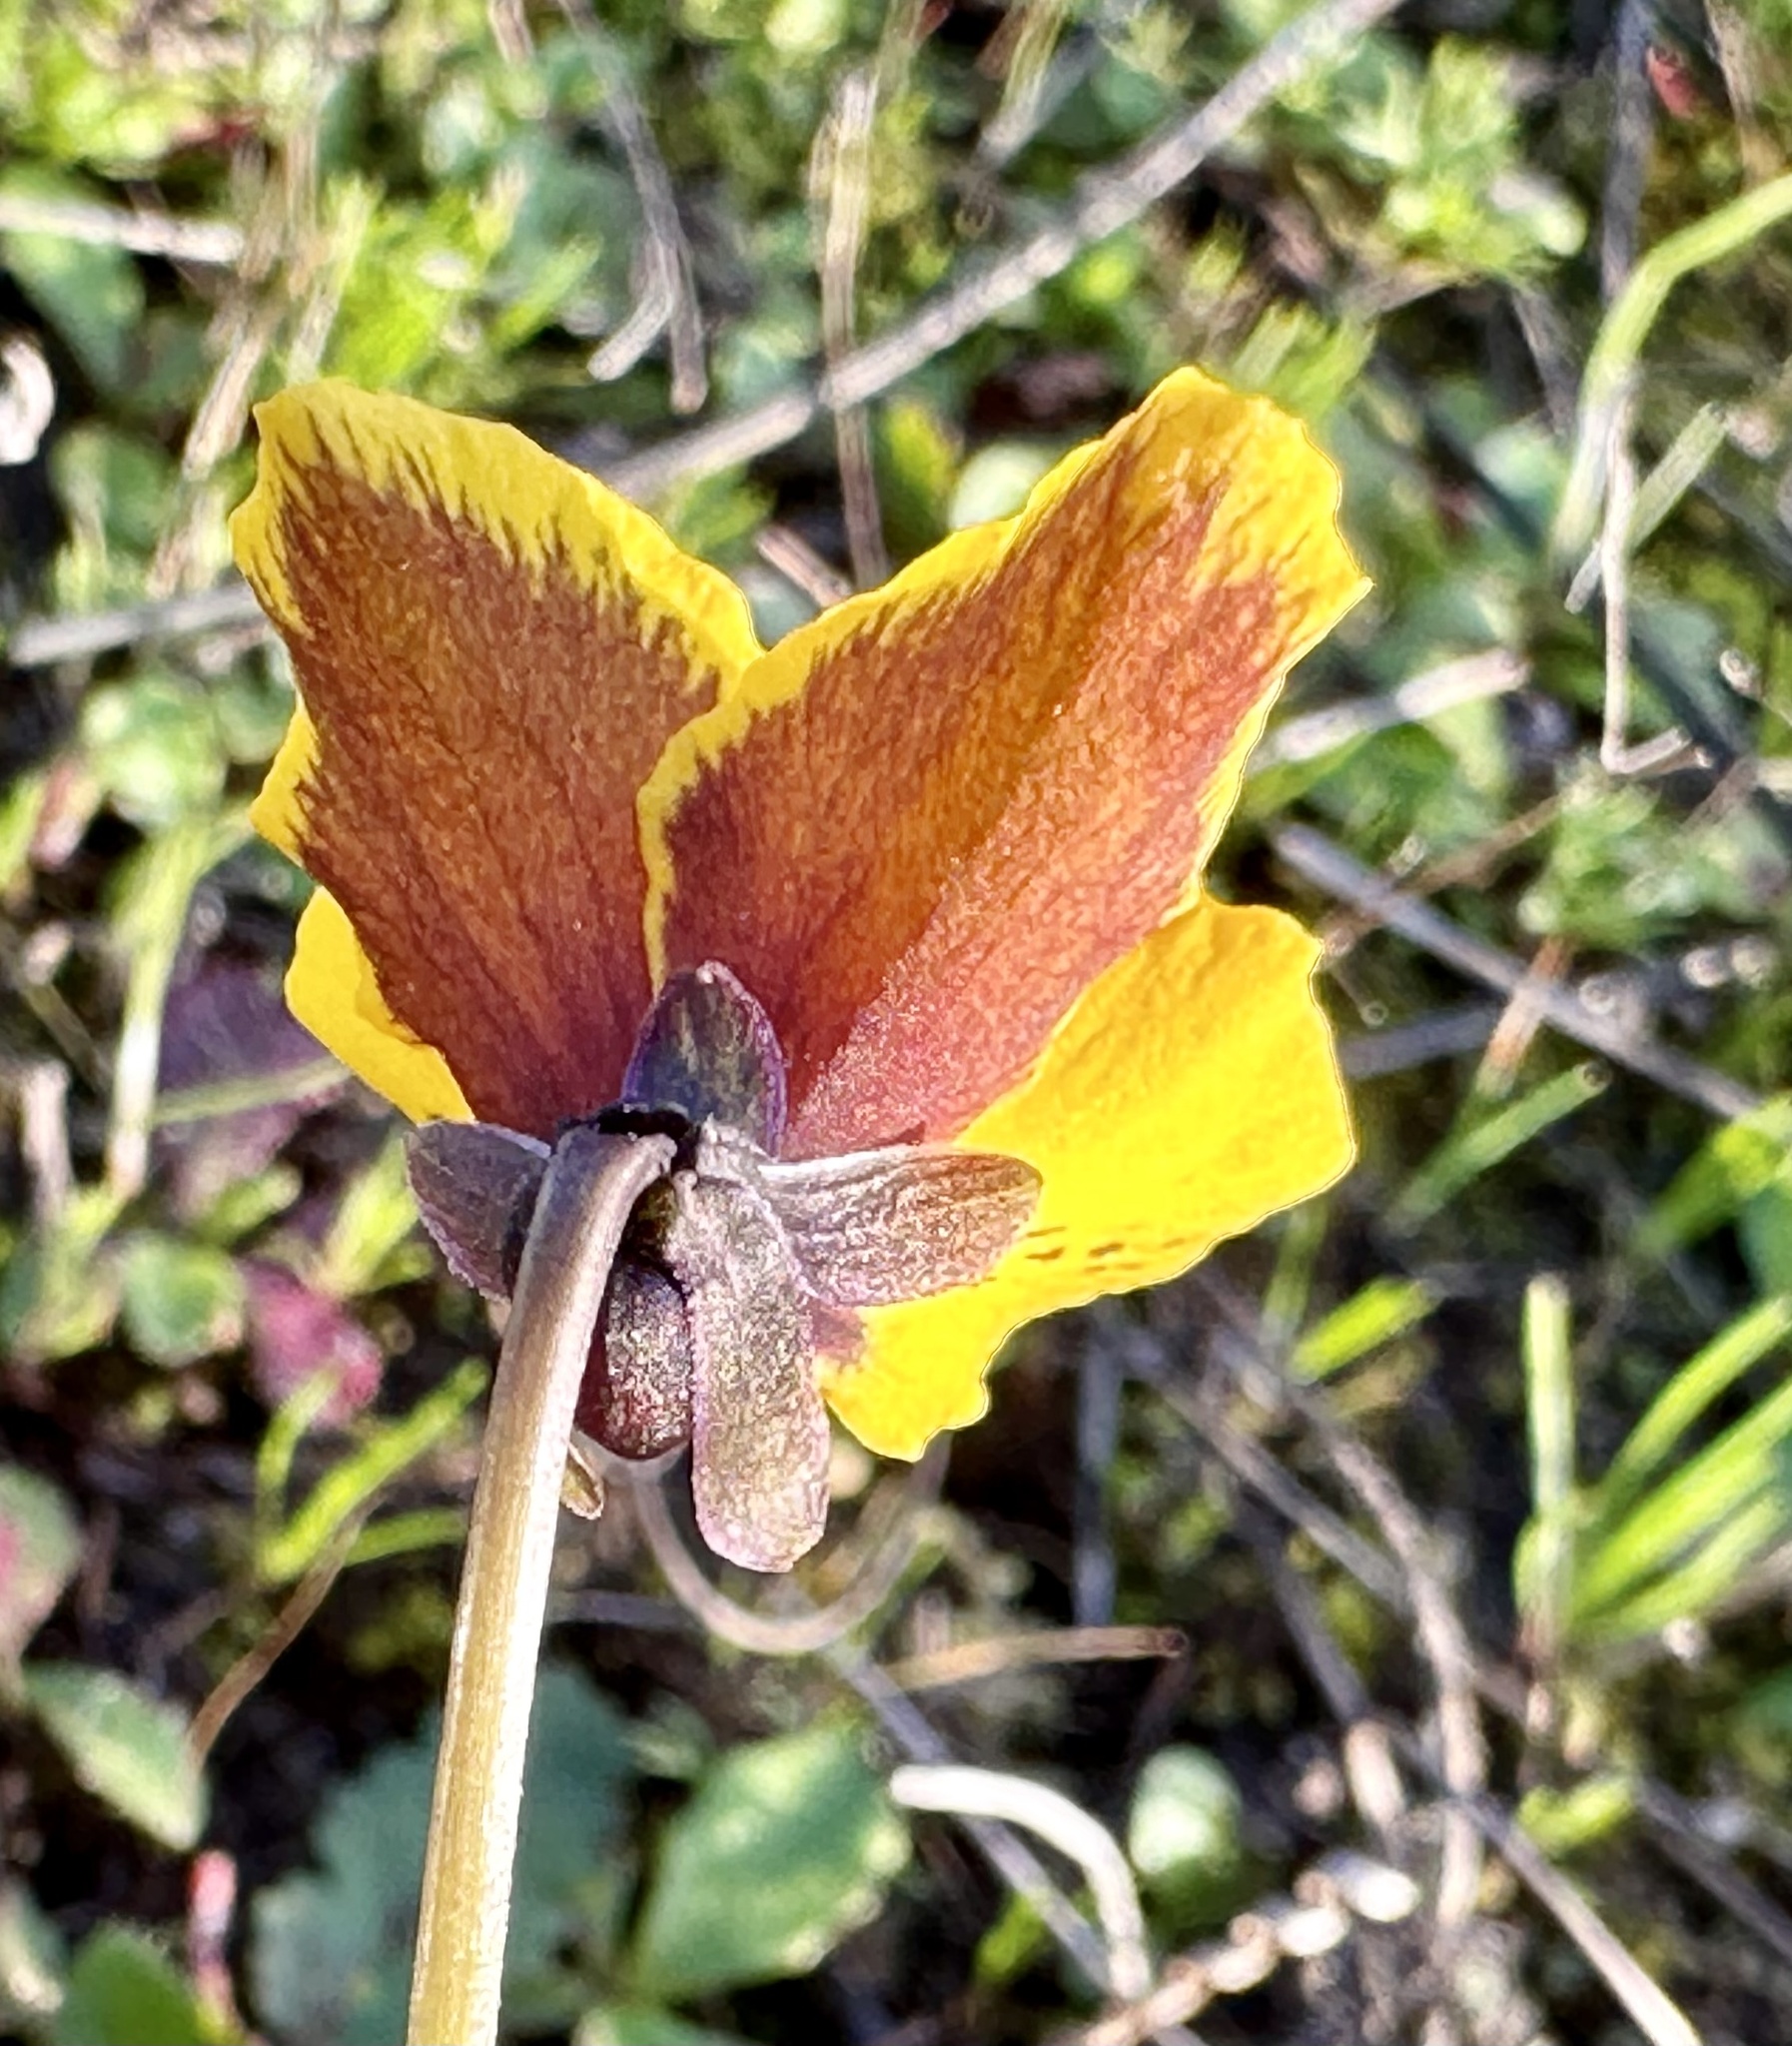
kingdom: Plantae
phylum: Tracheophyta
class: Magnoliopsida
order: Malpighiales
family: Violaceae
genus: Viola
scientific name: Viola pedunculata
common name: California golden violet
